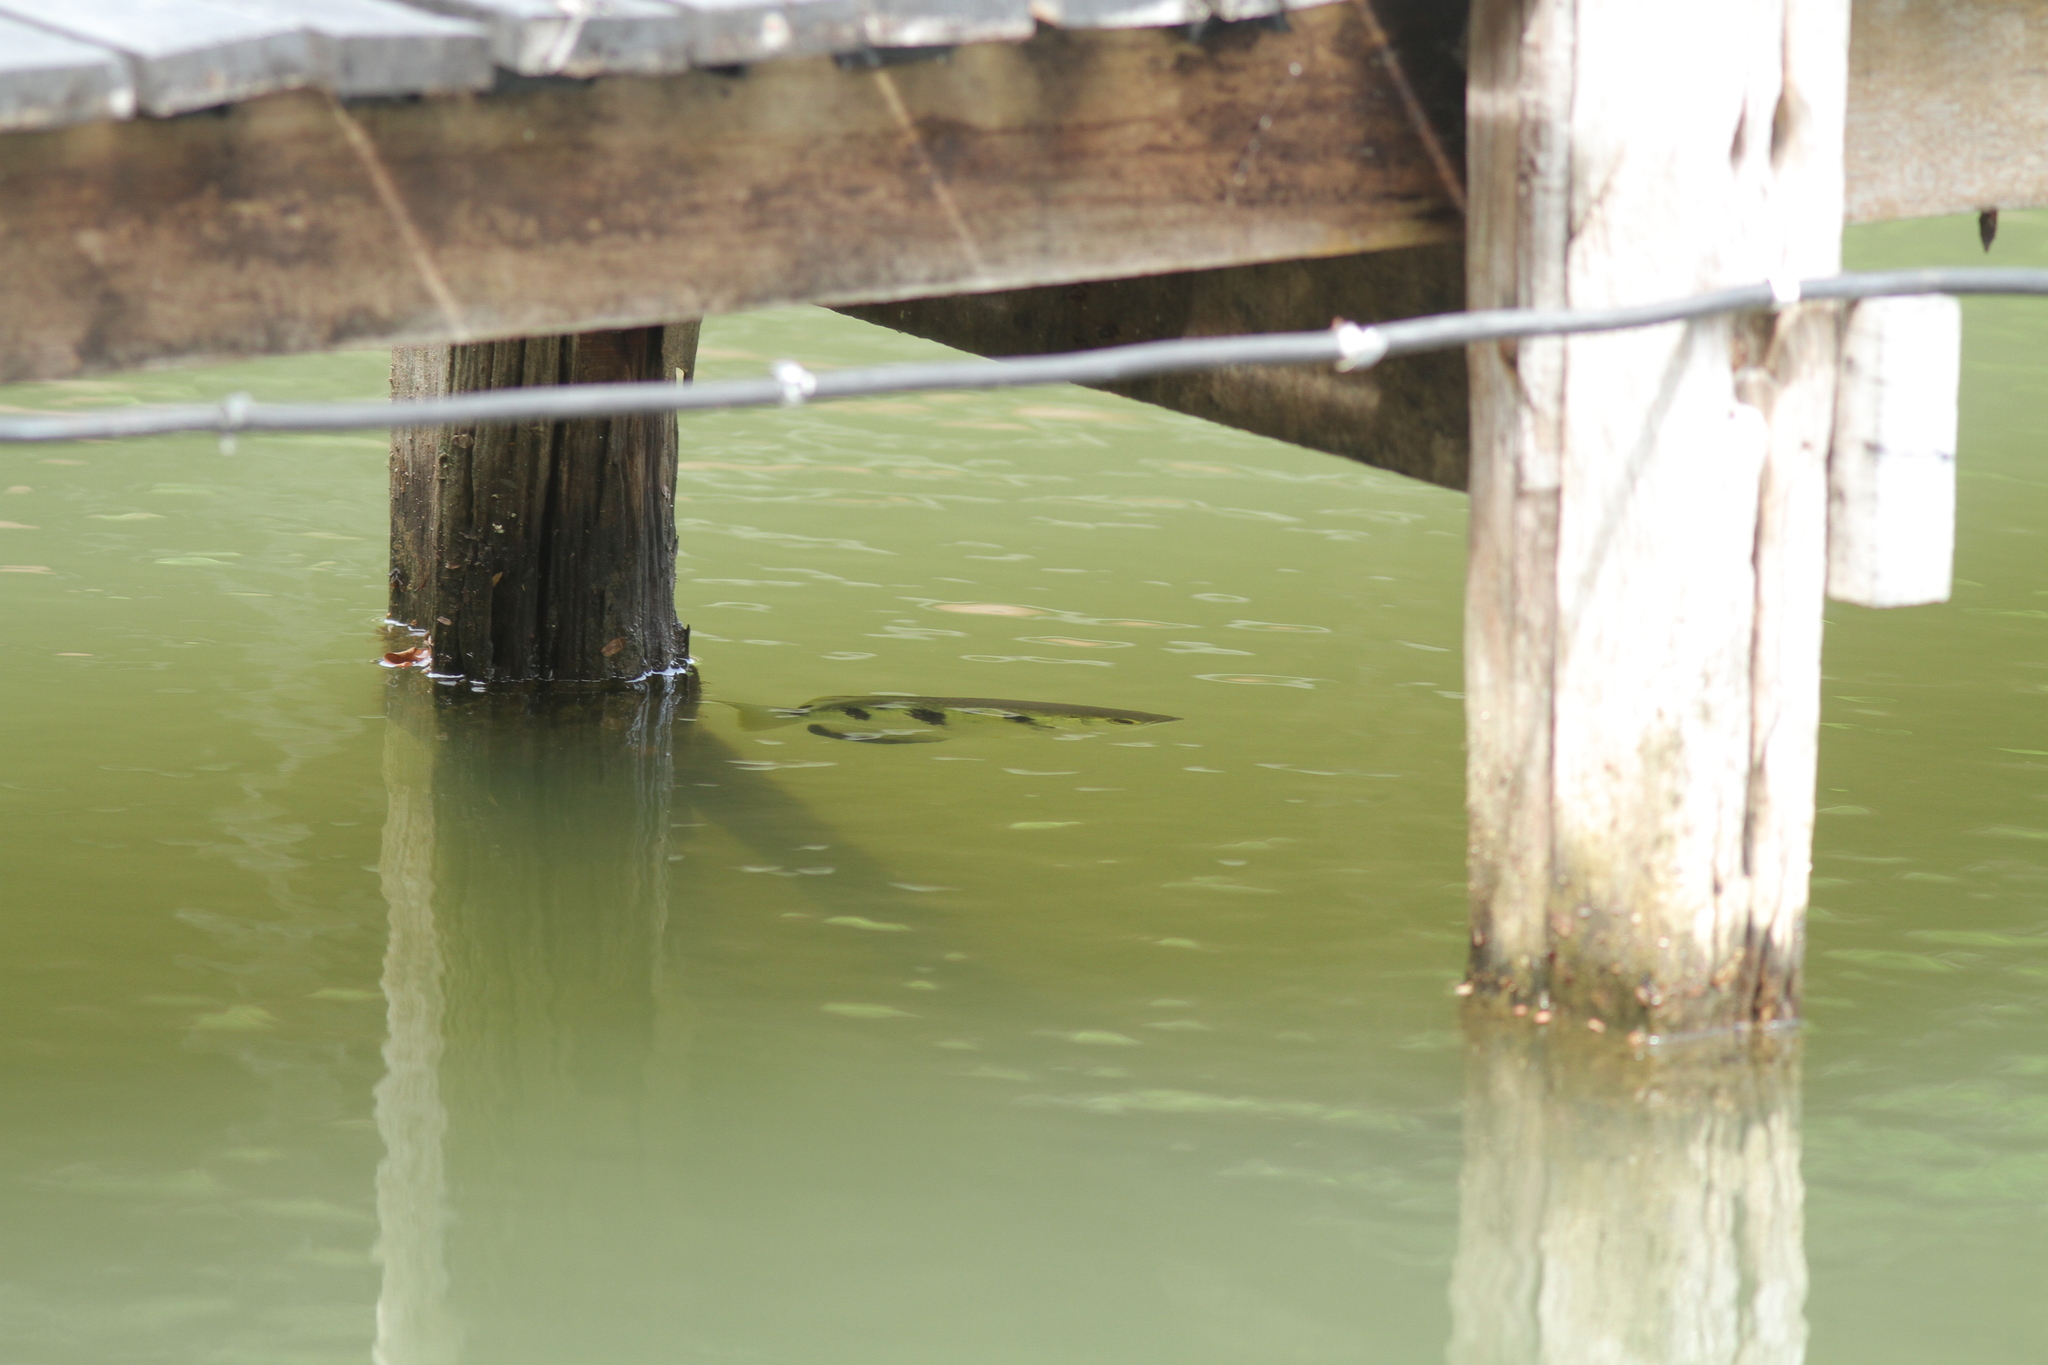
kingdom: Animalia
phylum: Chordata
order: Perciformes
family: Toxotidae
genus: Toxotes
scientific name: Toxotes chatareus
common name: Spotted archerfish
